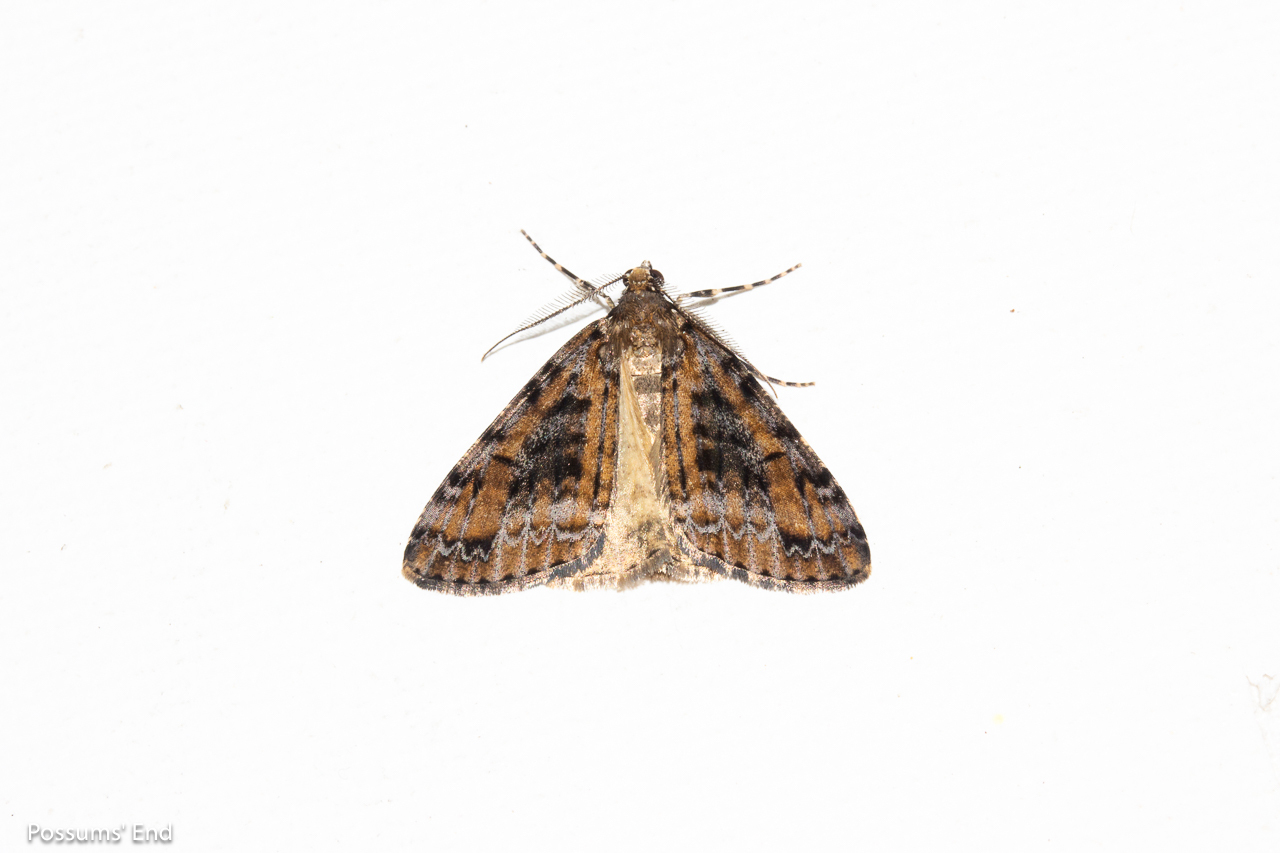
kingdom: Animalia
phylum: Arthropoda
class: Insecta
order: Lepidoptera
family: Geometridae
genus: Pseudocoremia
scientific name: Pseudocoremia leucelaea
